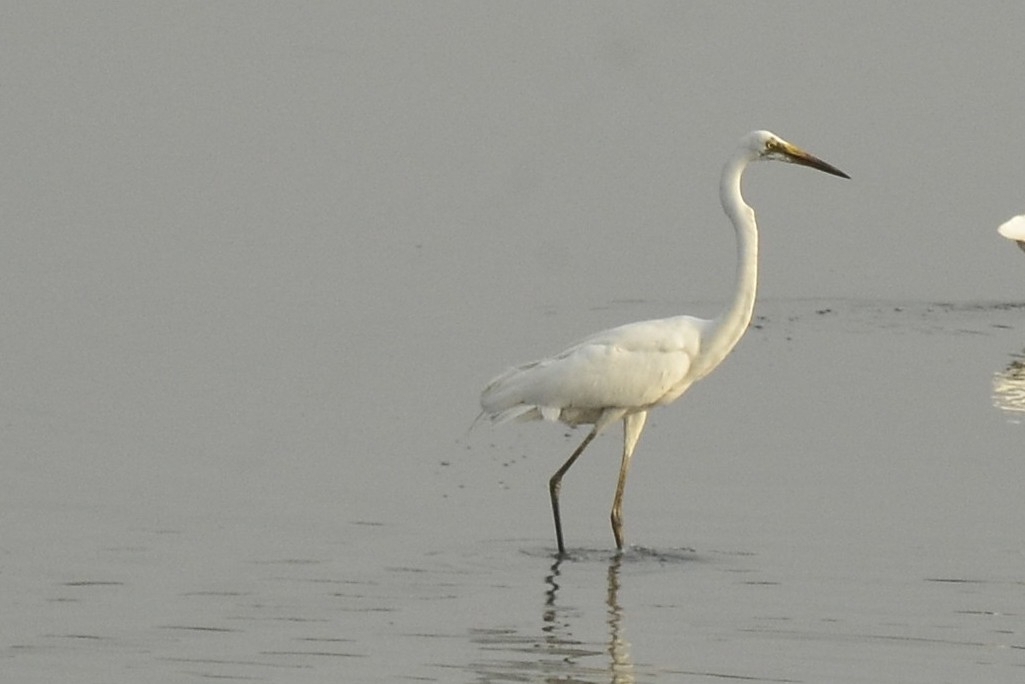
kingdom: Animalia
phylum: Chordata
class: Aves
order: Pelecaniformes
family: Ardeidae
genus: Ardea
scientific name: Ardea alba
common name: Great egret
